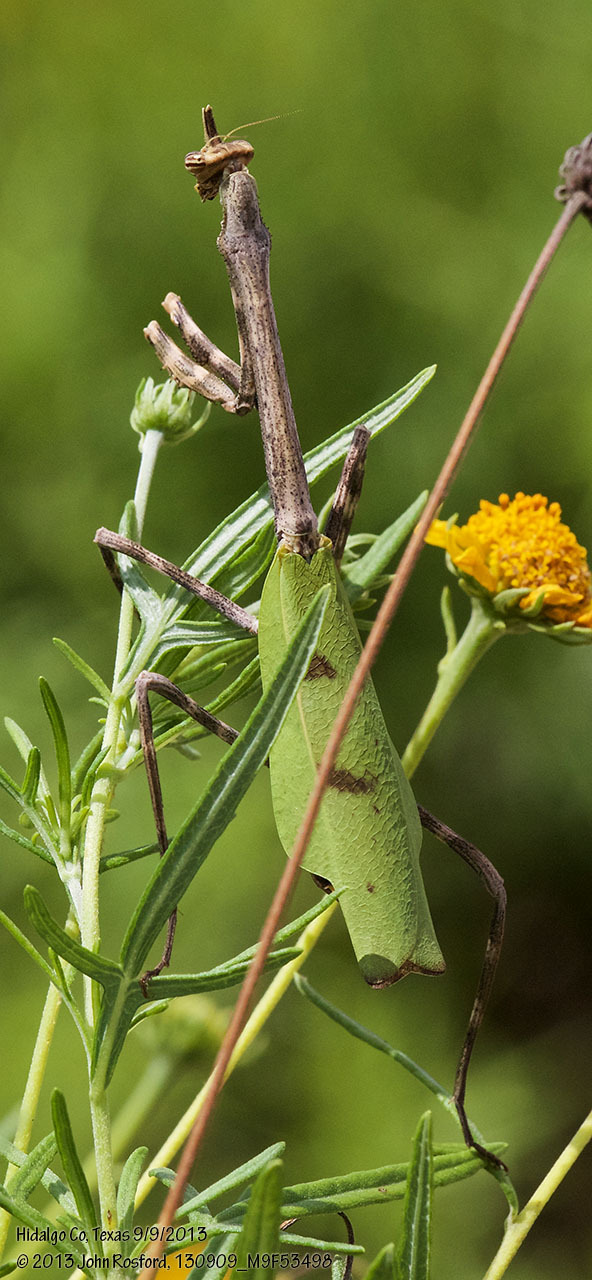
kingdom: Animalia
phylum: Arthropoda
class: Insecta
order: Mantodea
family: Mantidae
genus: Pseudovates
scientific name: Pseudovates chlorophaea
